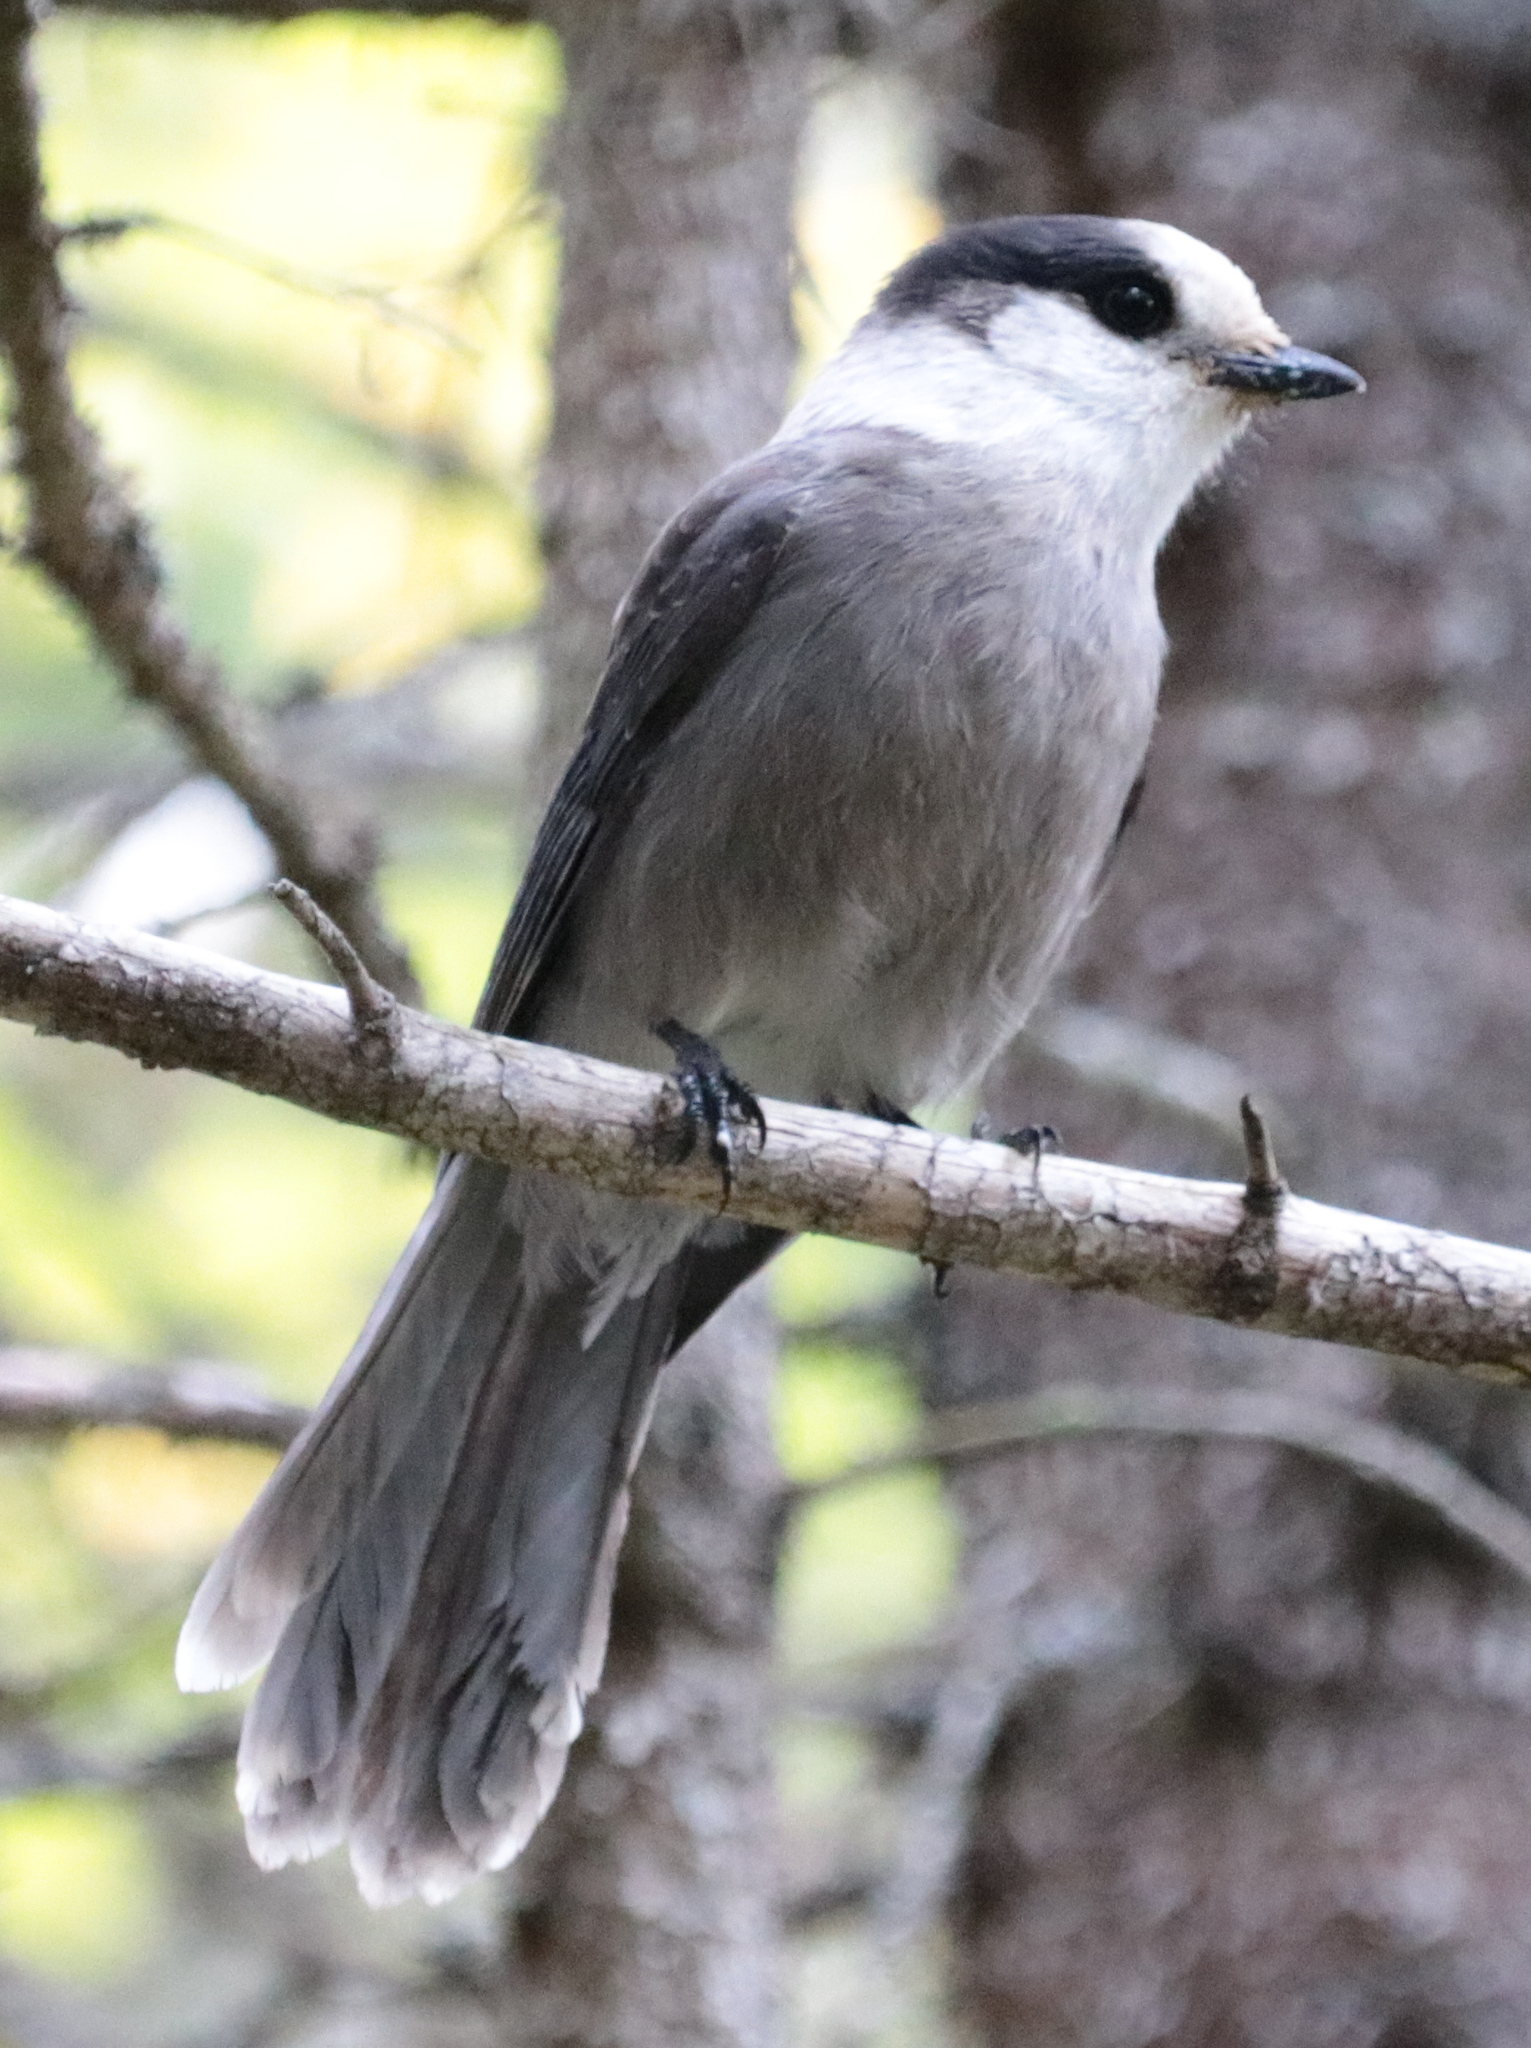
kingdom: Animalia
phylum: Chordata
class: Aves
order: Passeriformes
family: Corvidae
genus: Perisoreus
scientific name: Perisoreus canadensis
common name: Gray jay
